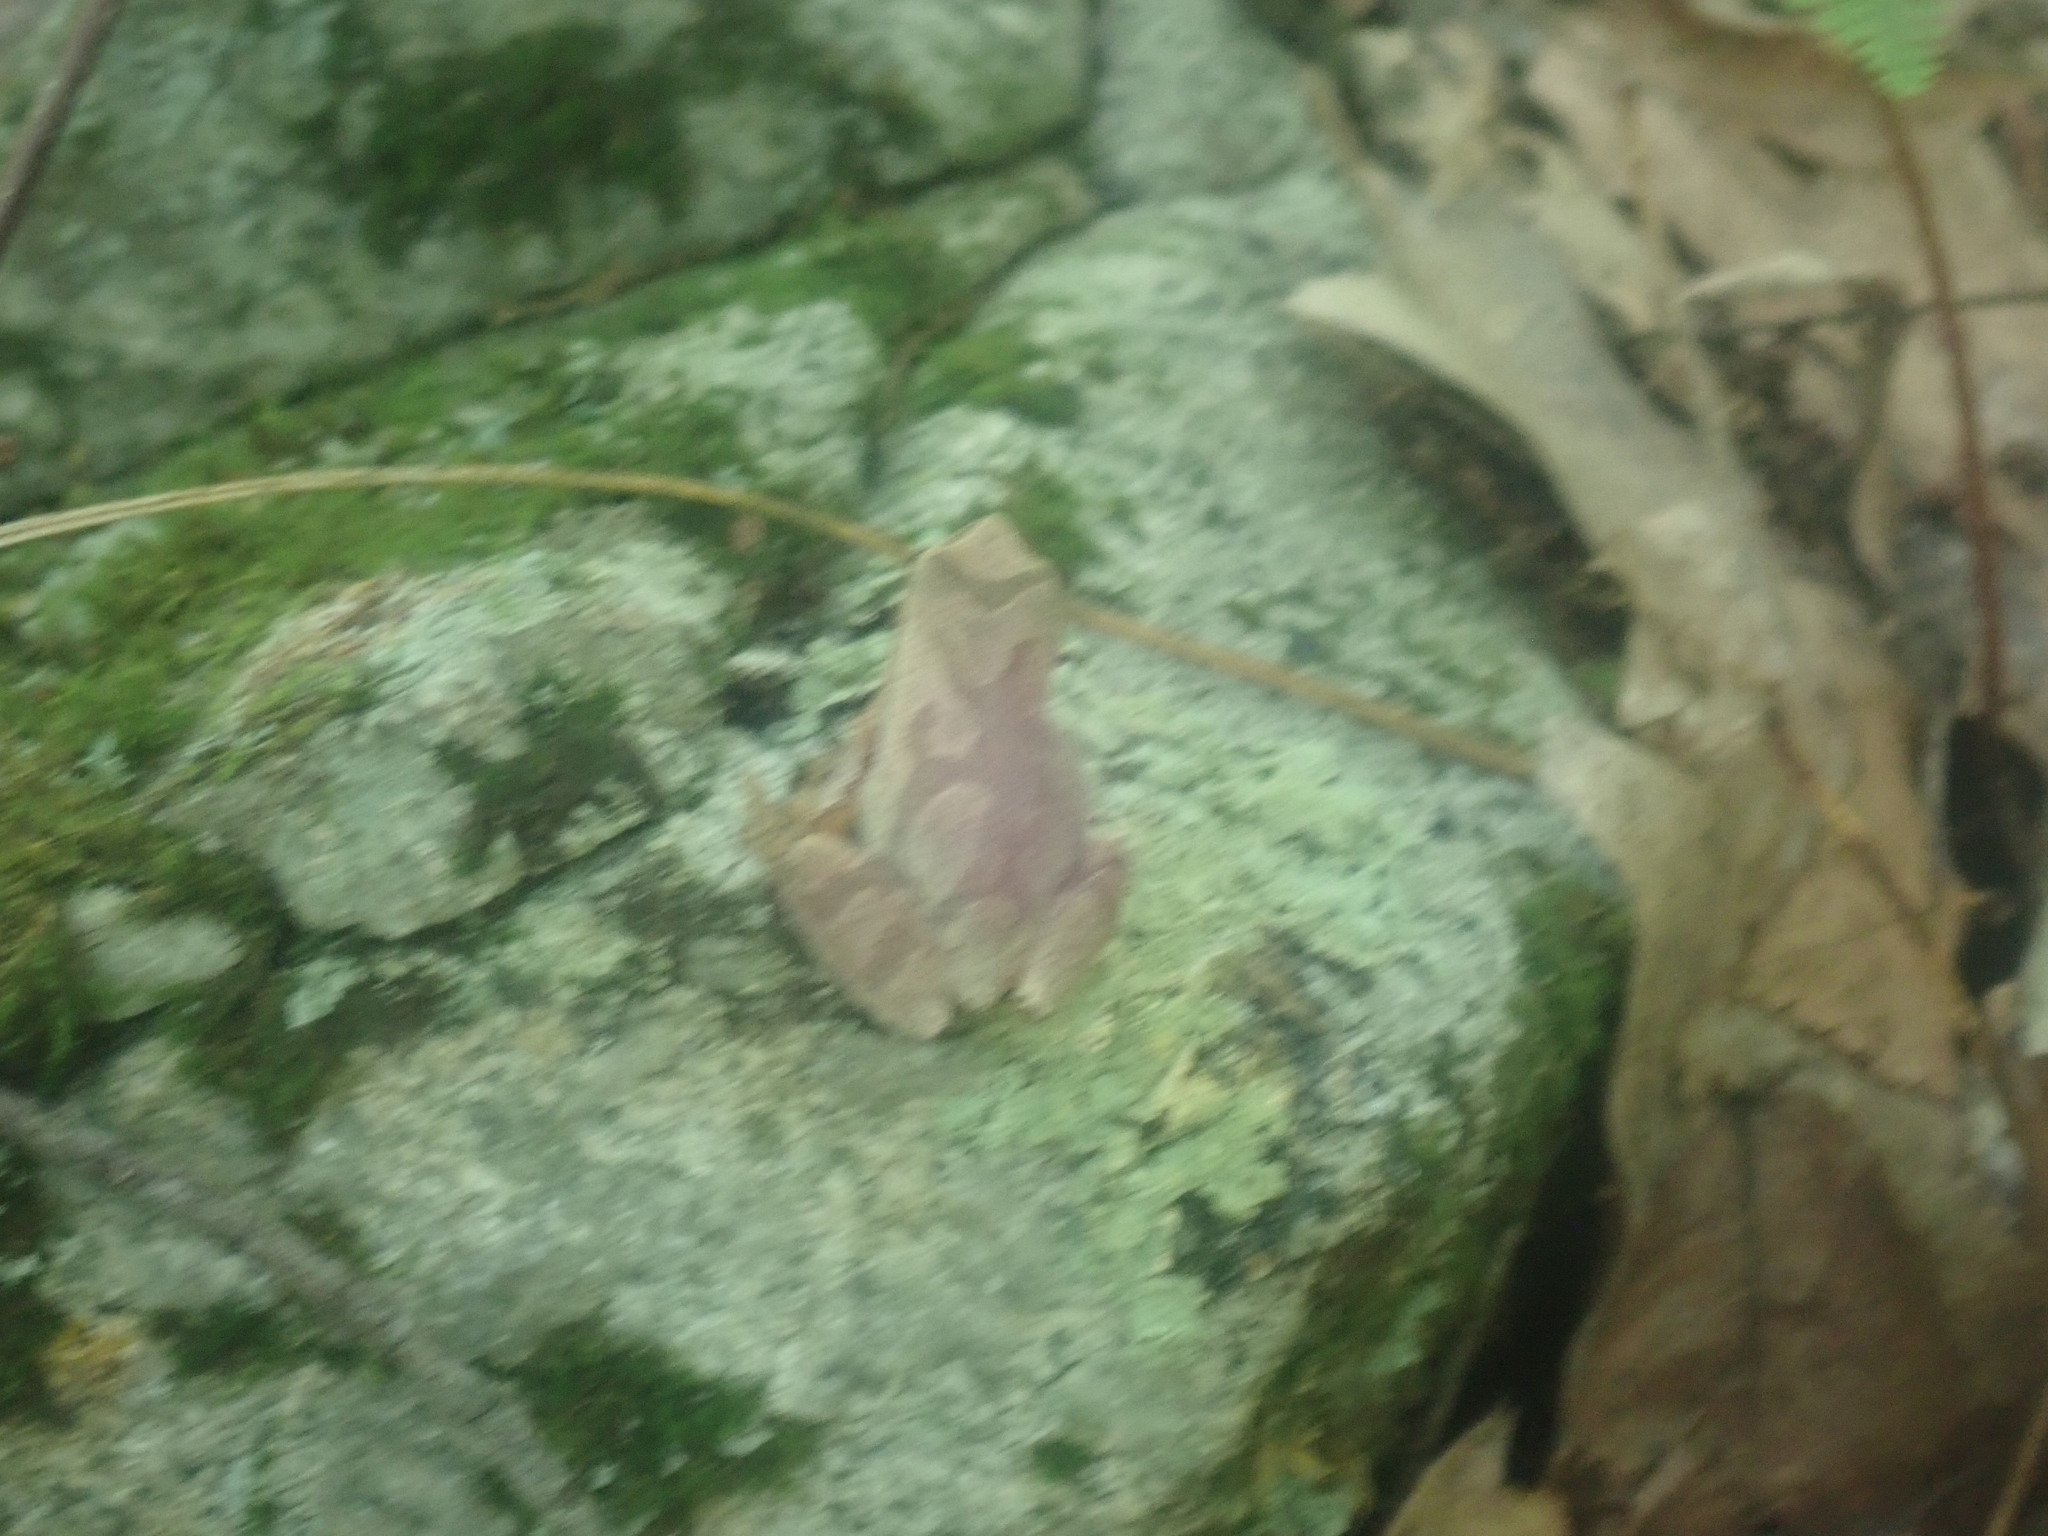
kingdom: Animalia
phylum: Chordata
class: Amphibia
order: Anura
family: Hylidae
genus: Pseudacris
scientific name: Pseudacris crucifer
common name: Spring peeper
